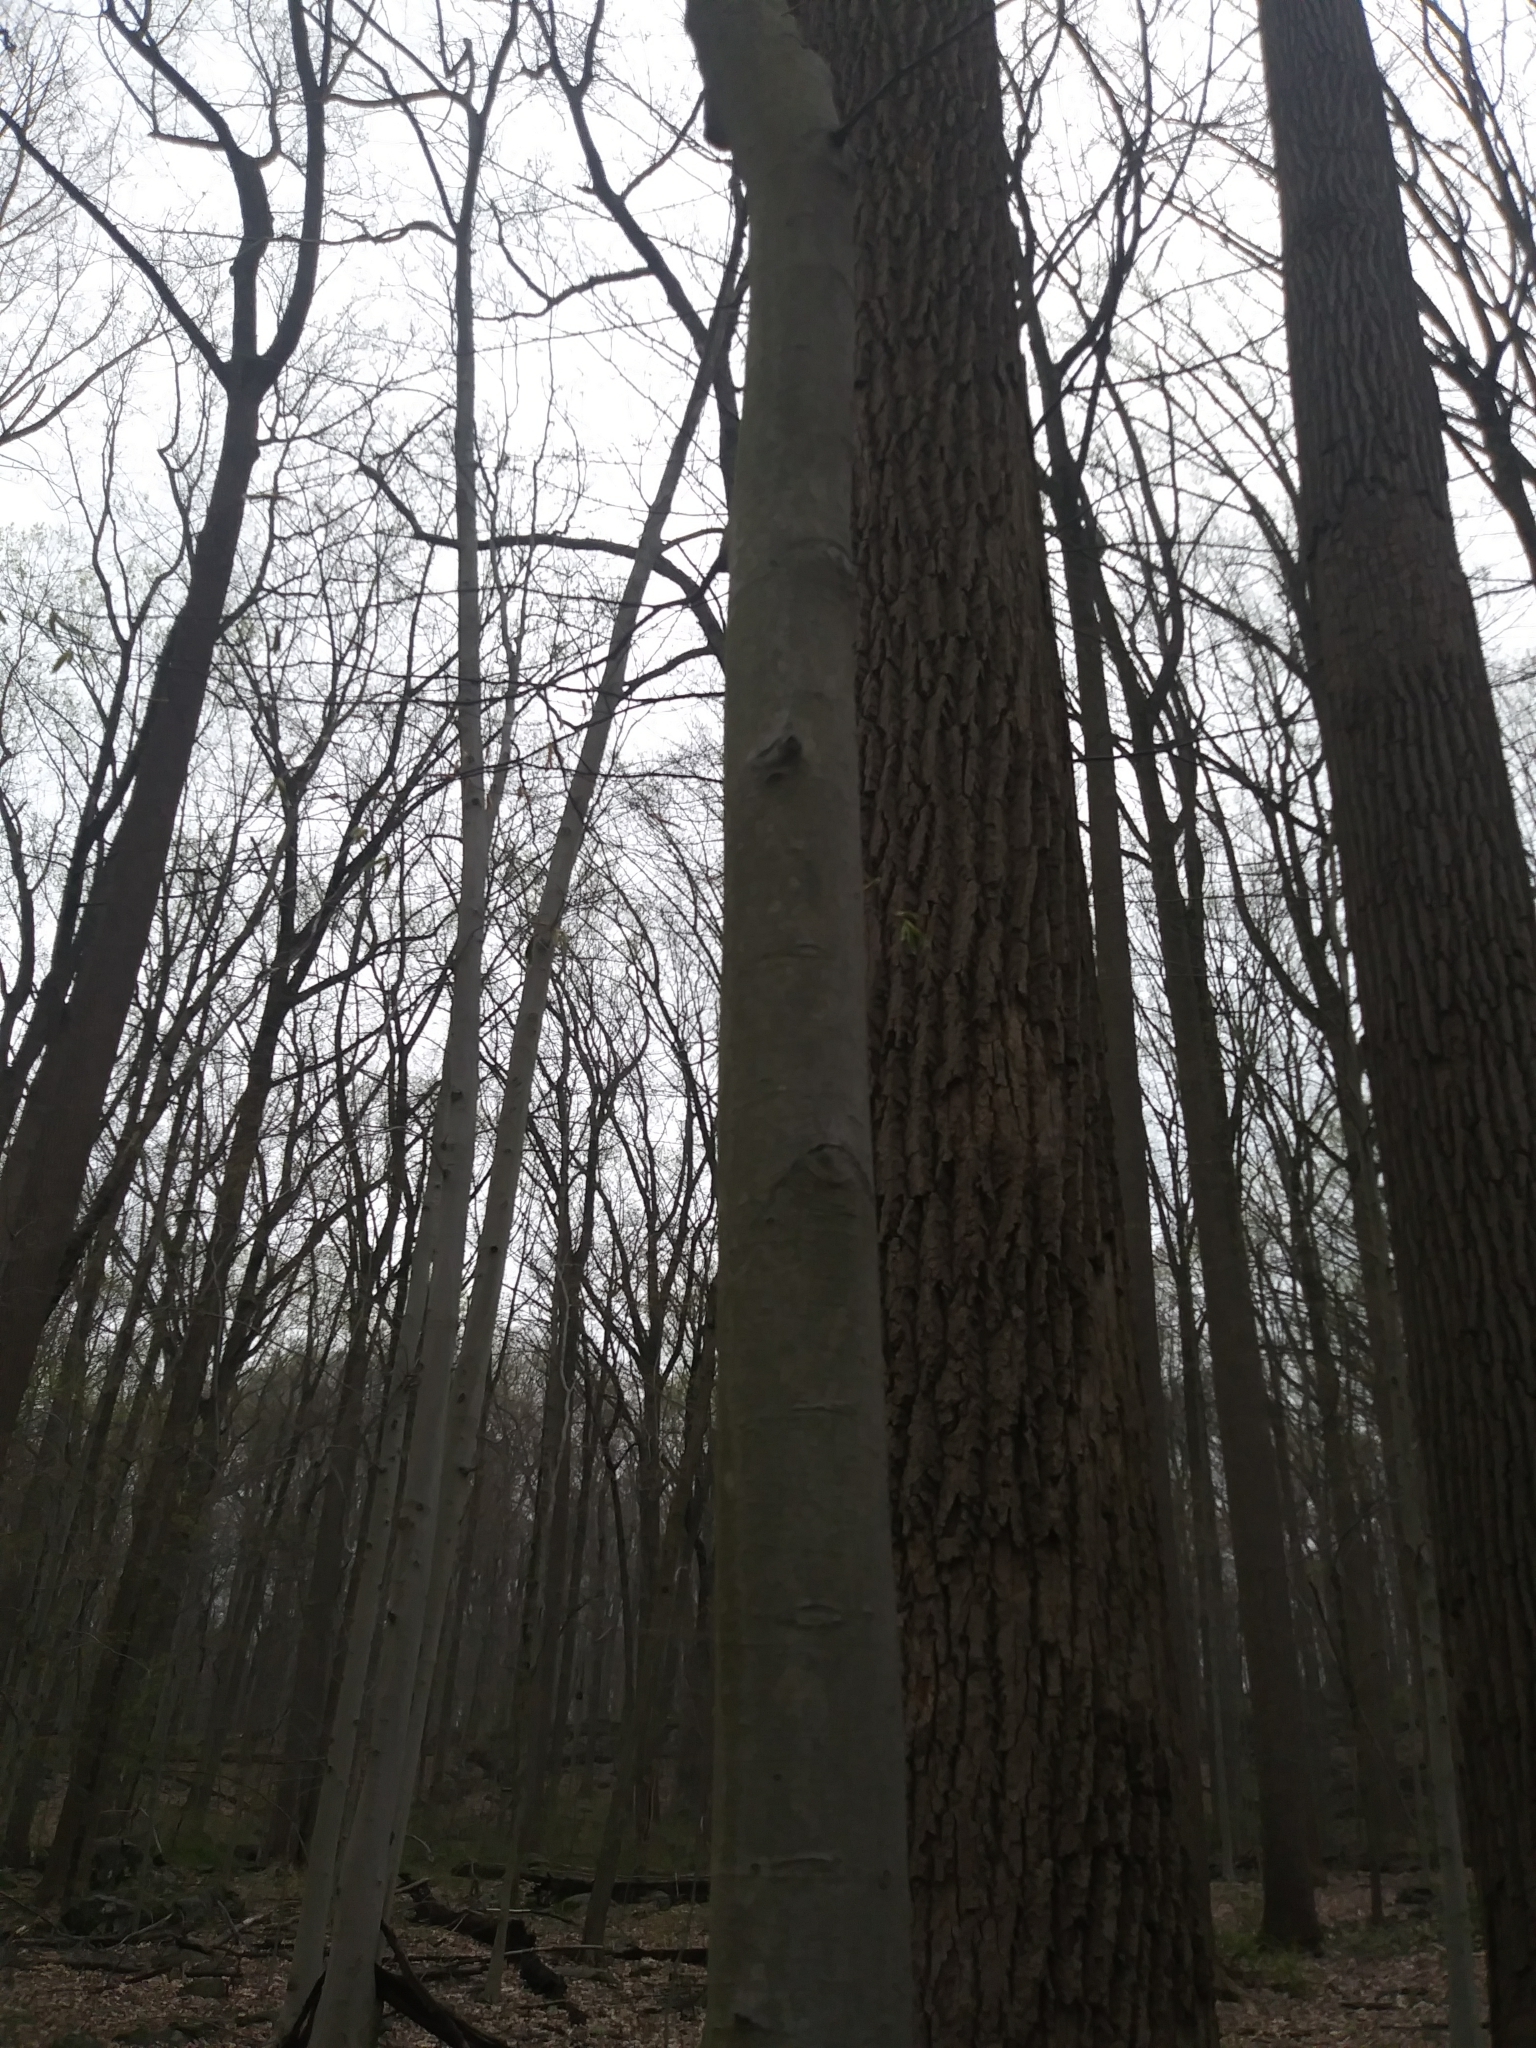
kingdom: Plantae
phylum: Tracheophyta
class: Magnoliopsida
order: Fagales
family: Fagaceae
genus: Fagus
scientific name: Fagus grandifolia
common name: American beech
